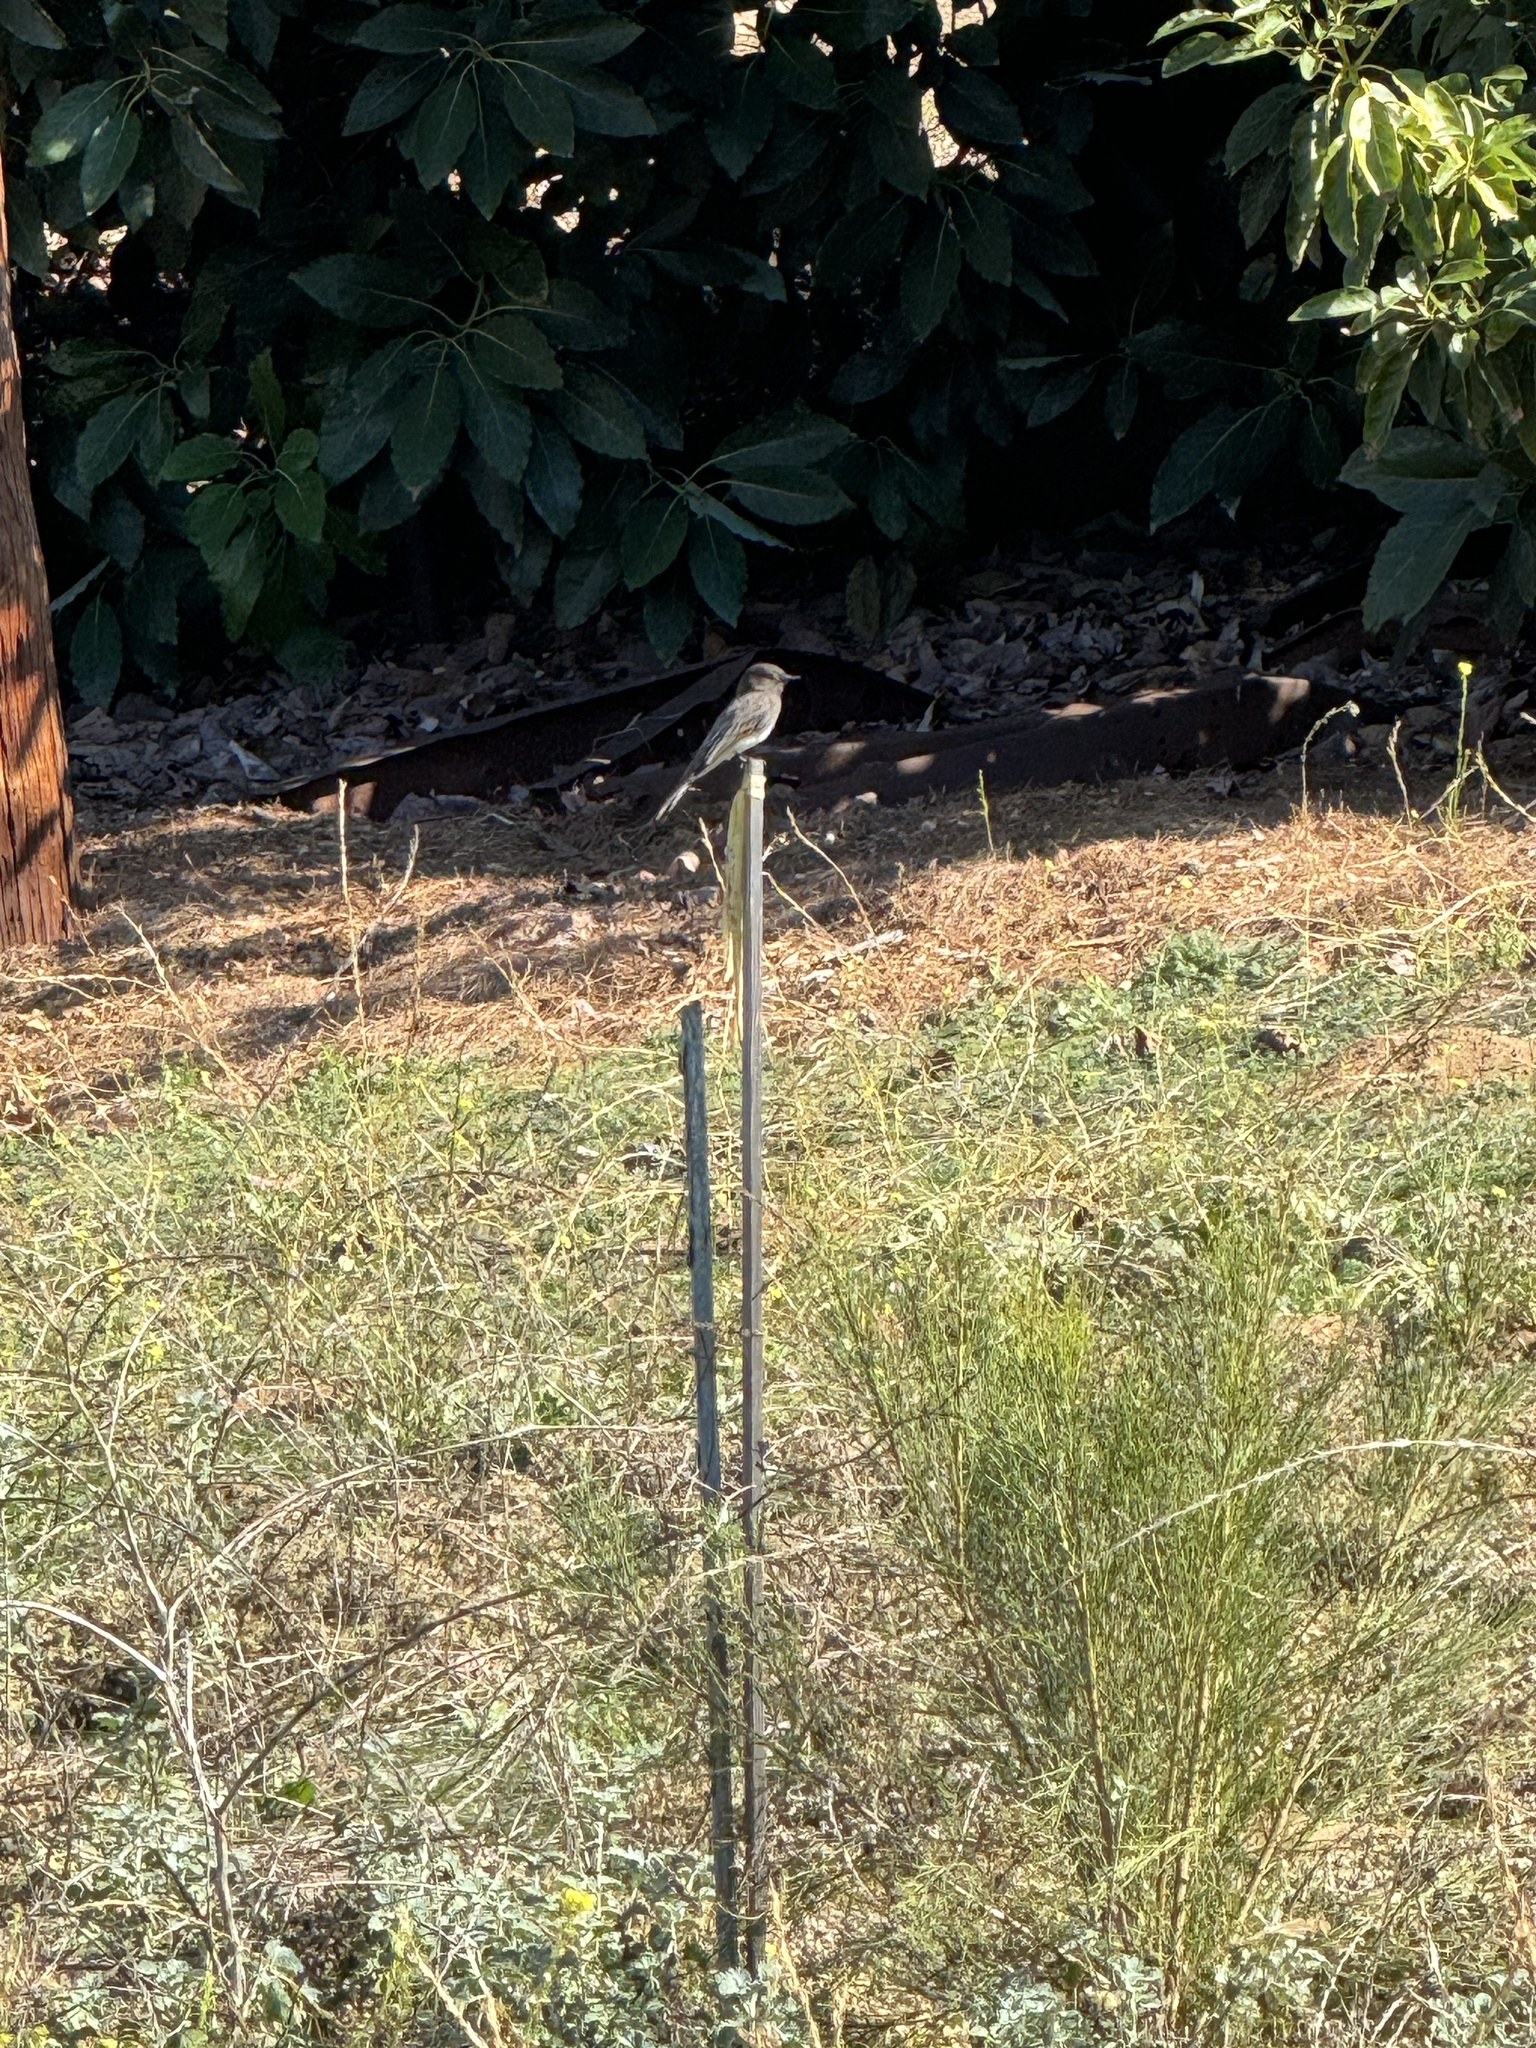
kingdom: Animalia
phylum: Chordata
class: Aves
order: Passeriformes
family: Tyrannidae
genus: Sayornis
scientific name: Sayornis nigricans
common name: Black phoebe
